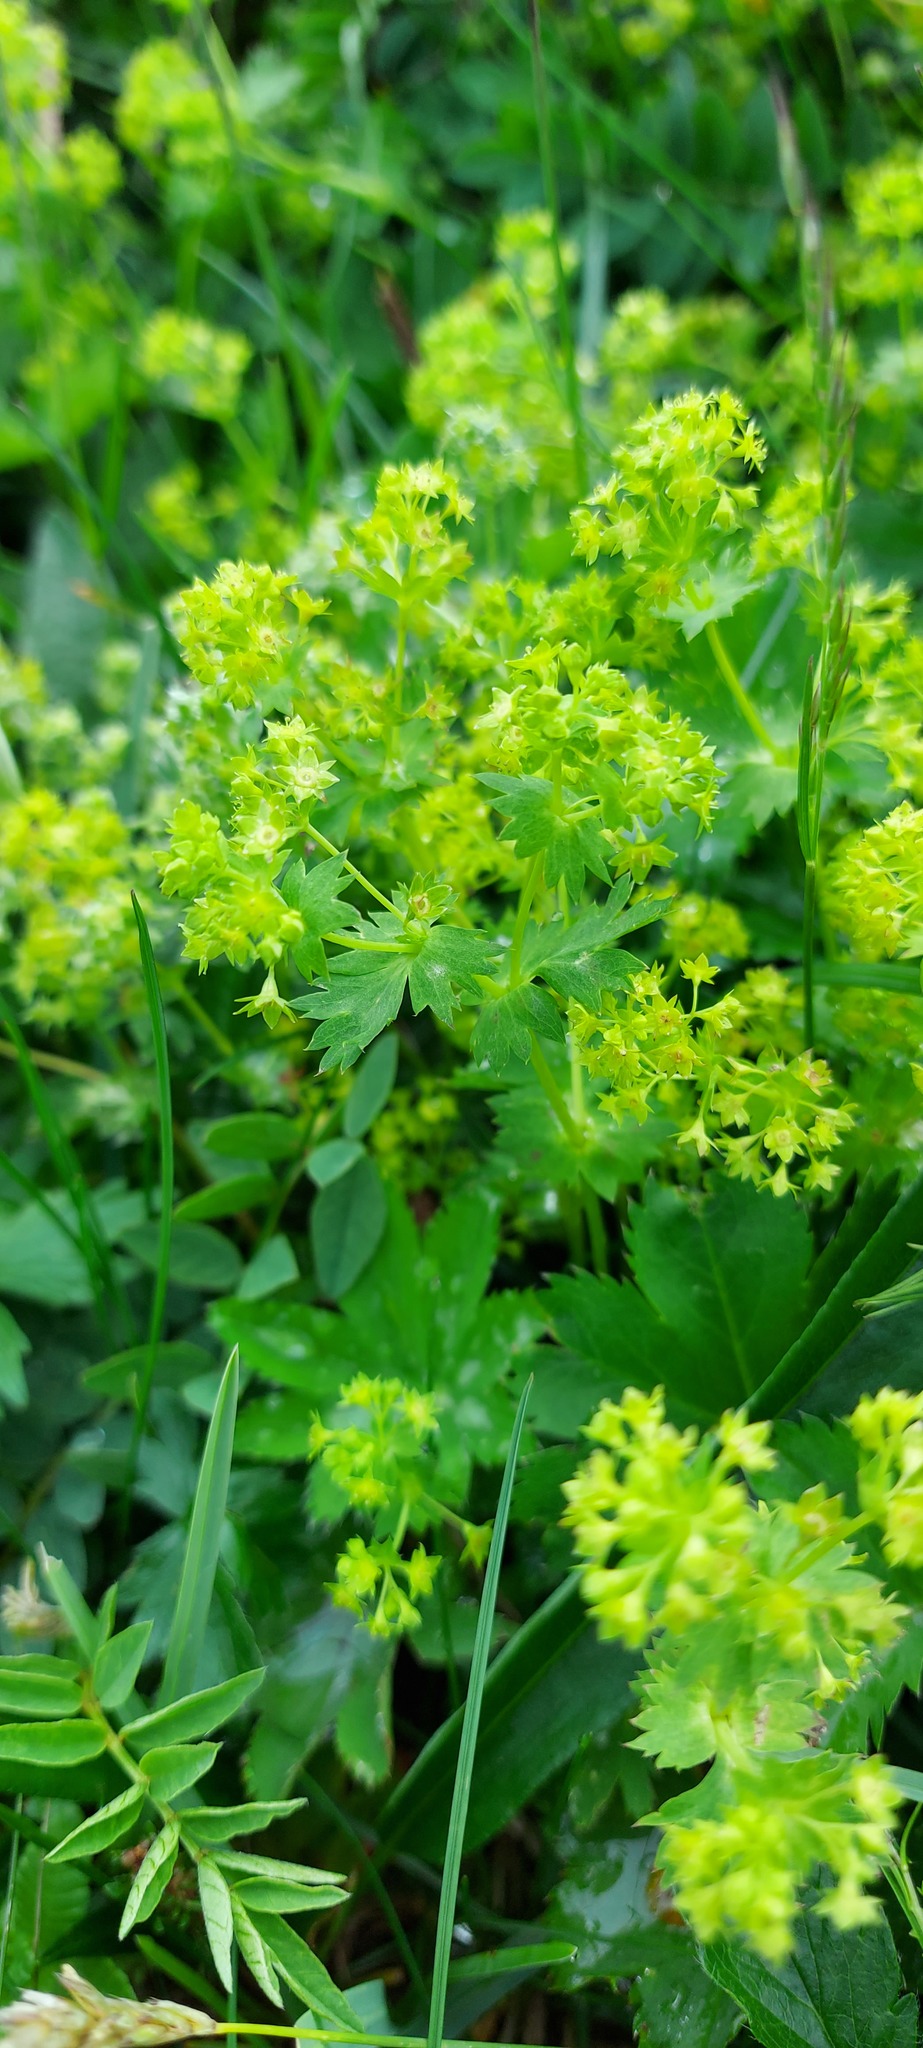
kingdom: Plantae
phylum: Tracheophyta
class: Magnoliopsida
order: Rosales
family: Rosaceae
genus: Alchemilla
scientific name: Alchemilla vulgaris
